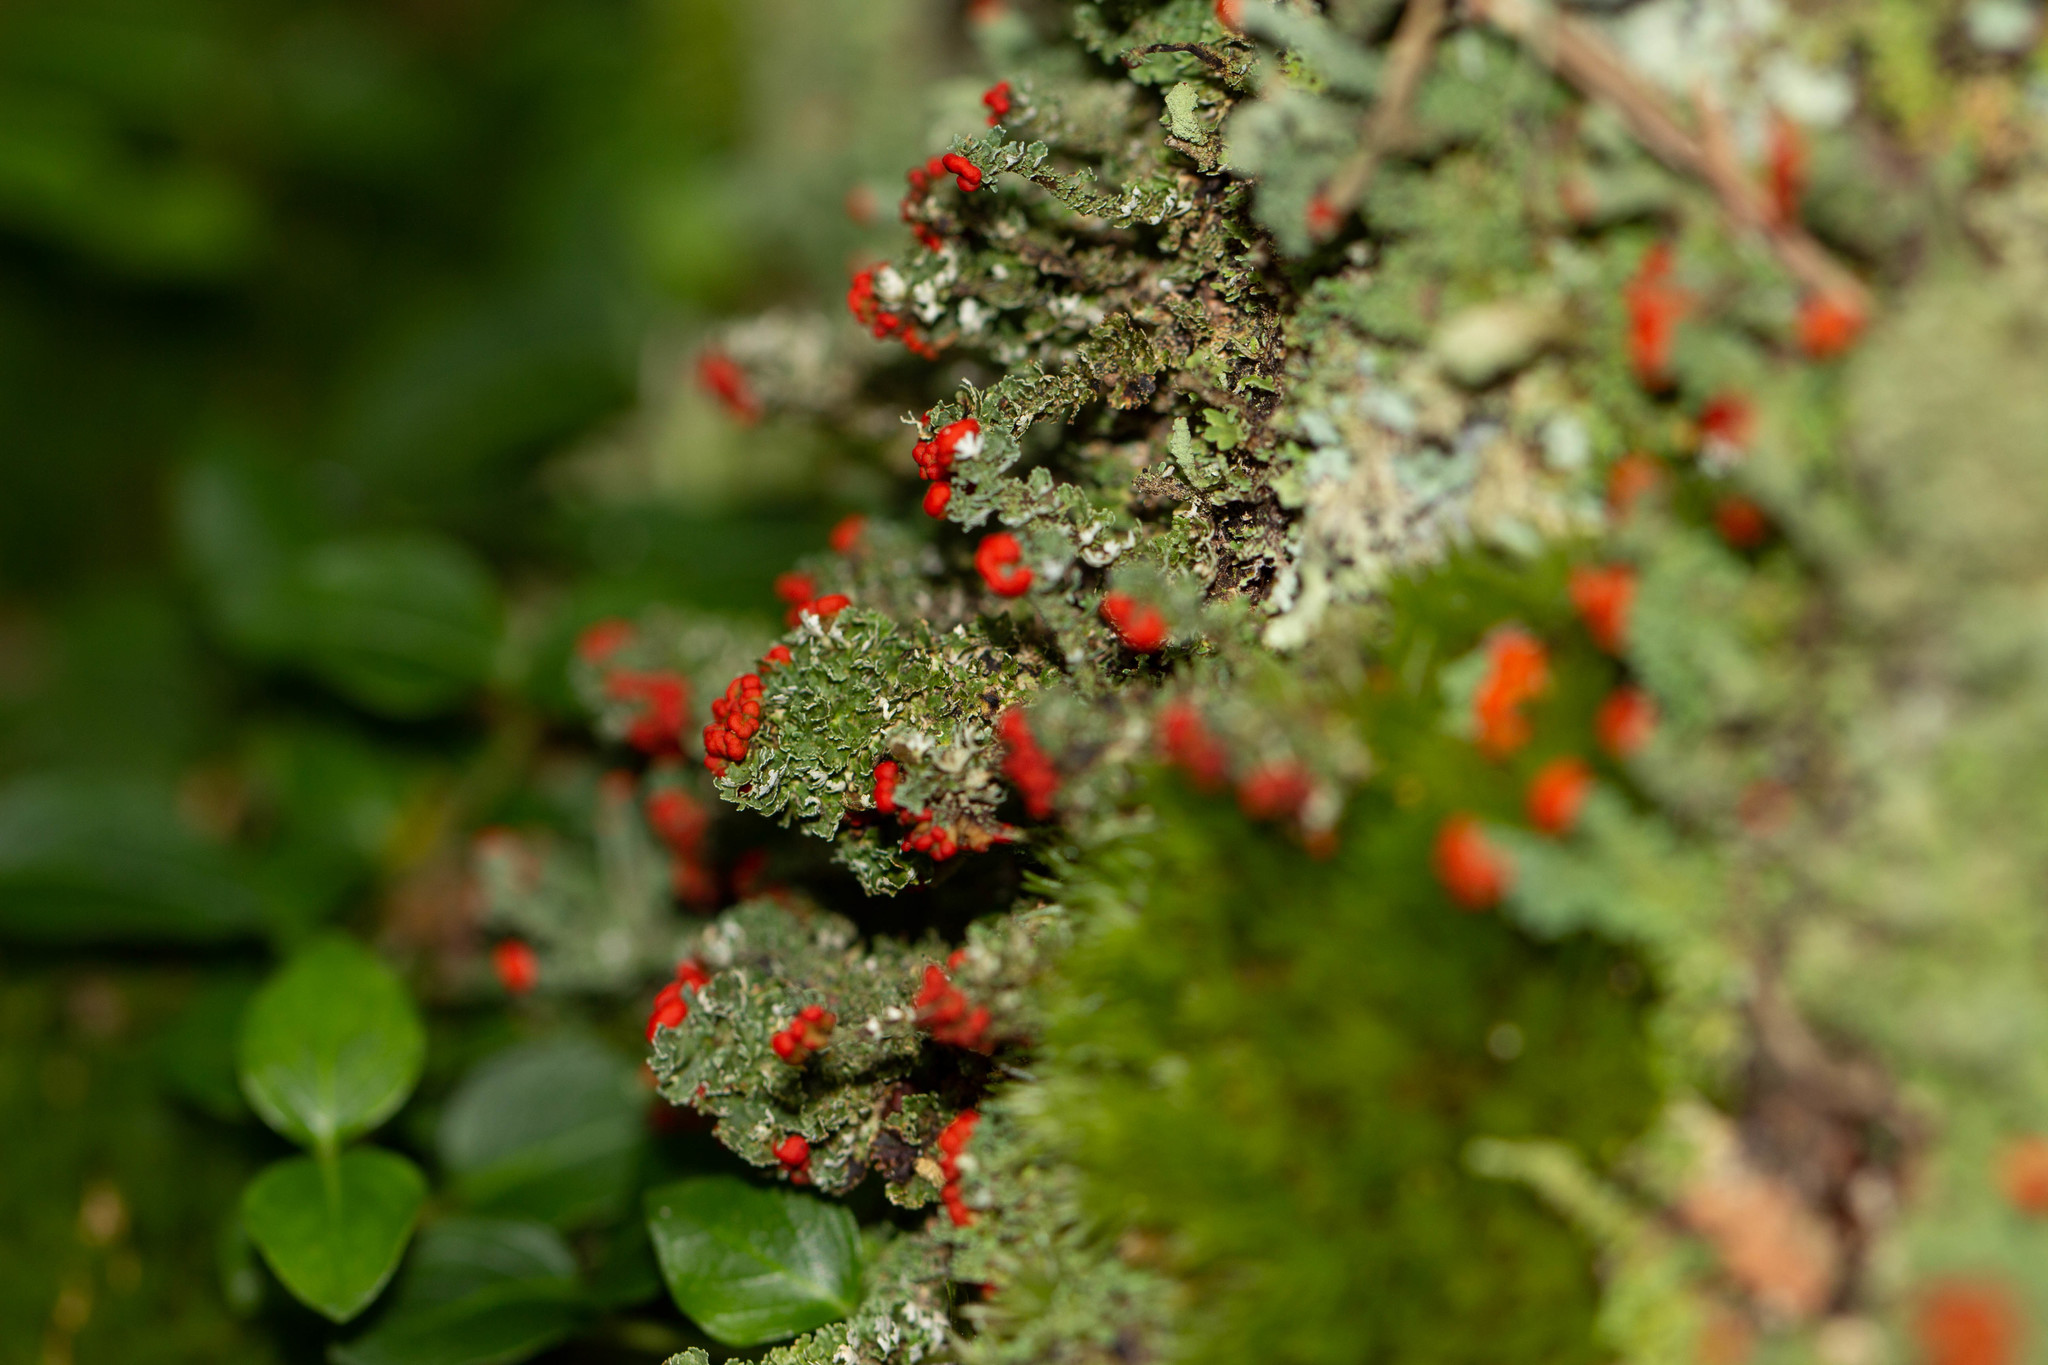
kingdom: Fungi
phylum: Ascomycota
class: Lecanoromycetes
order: Lecanorales
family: Cladoniaceae
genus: Cladonia
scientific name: Cladonia cristatella
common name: British soldier lichen
